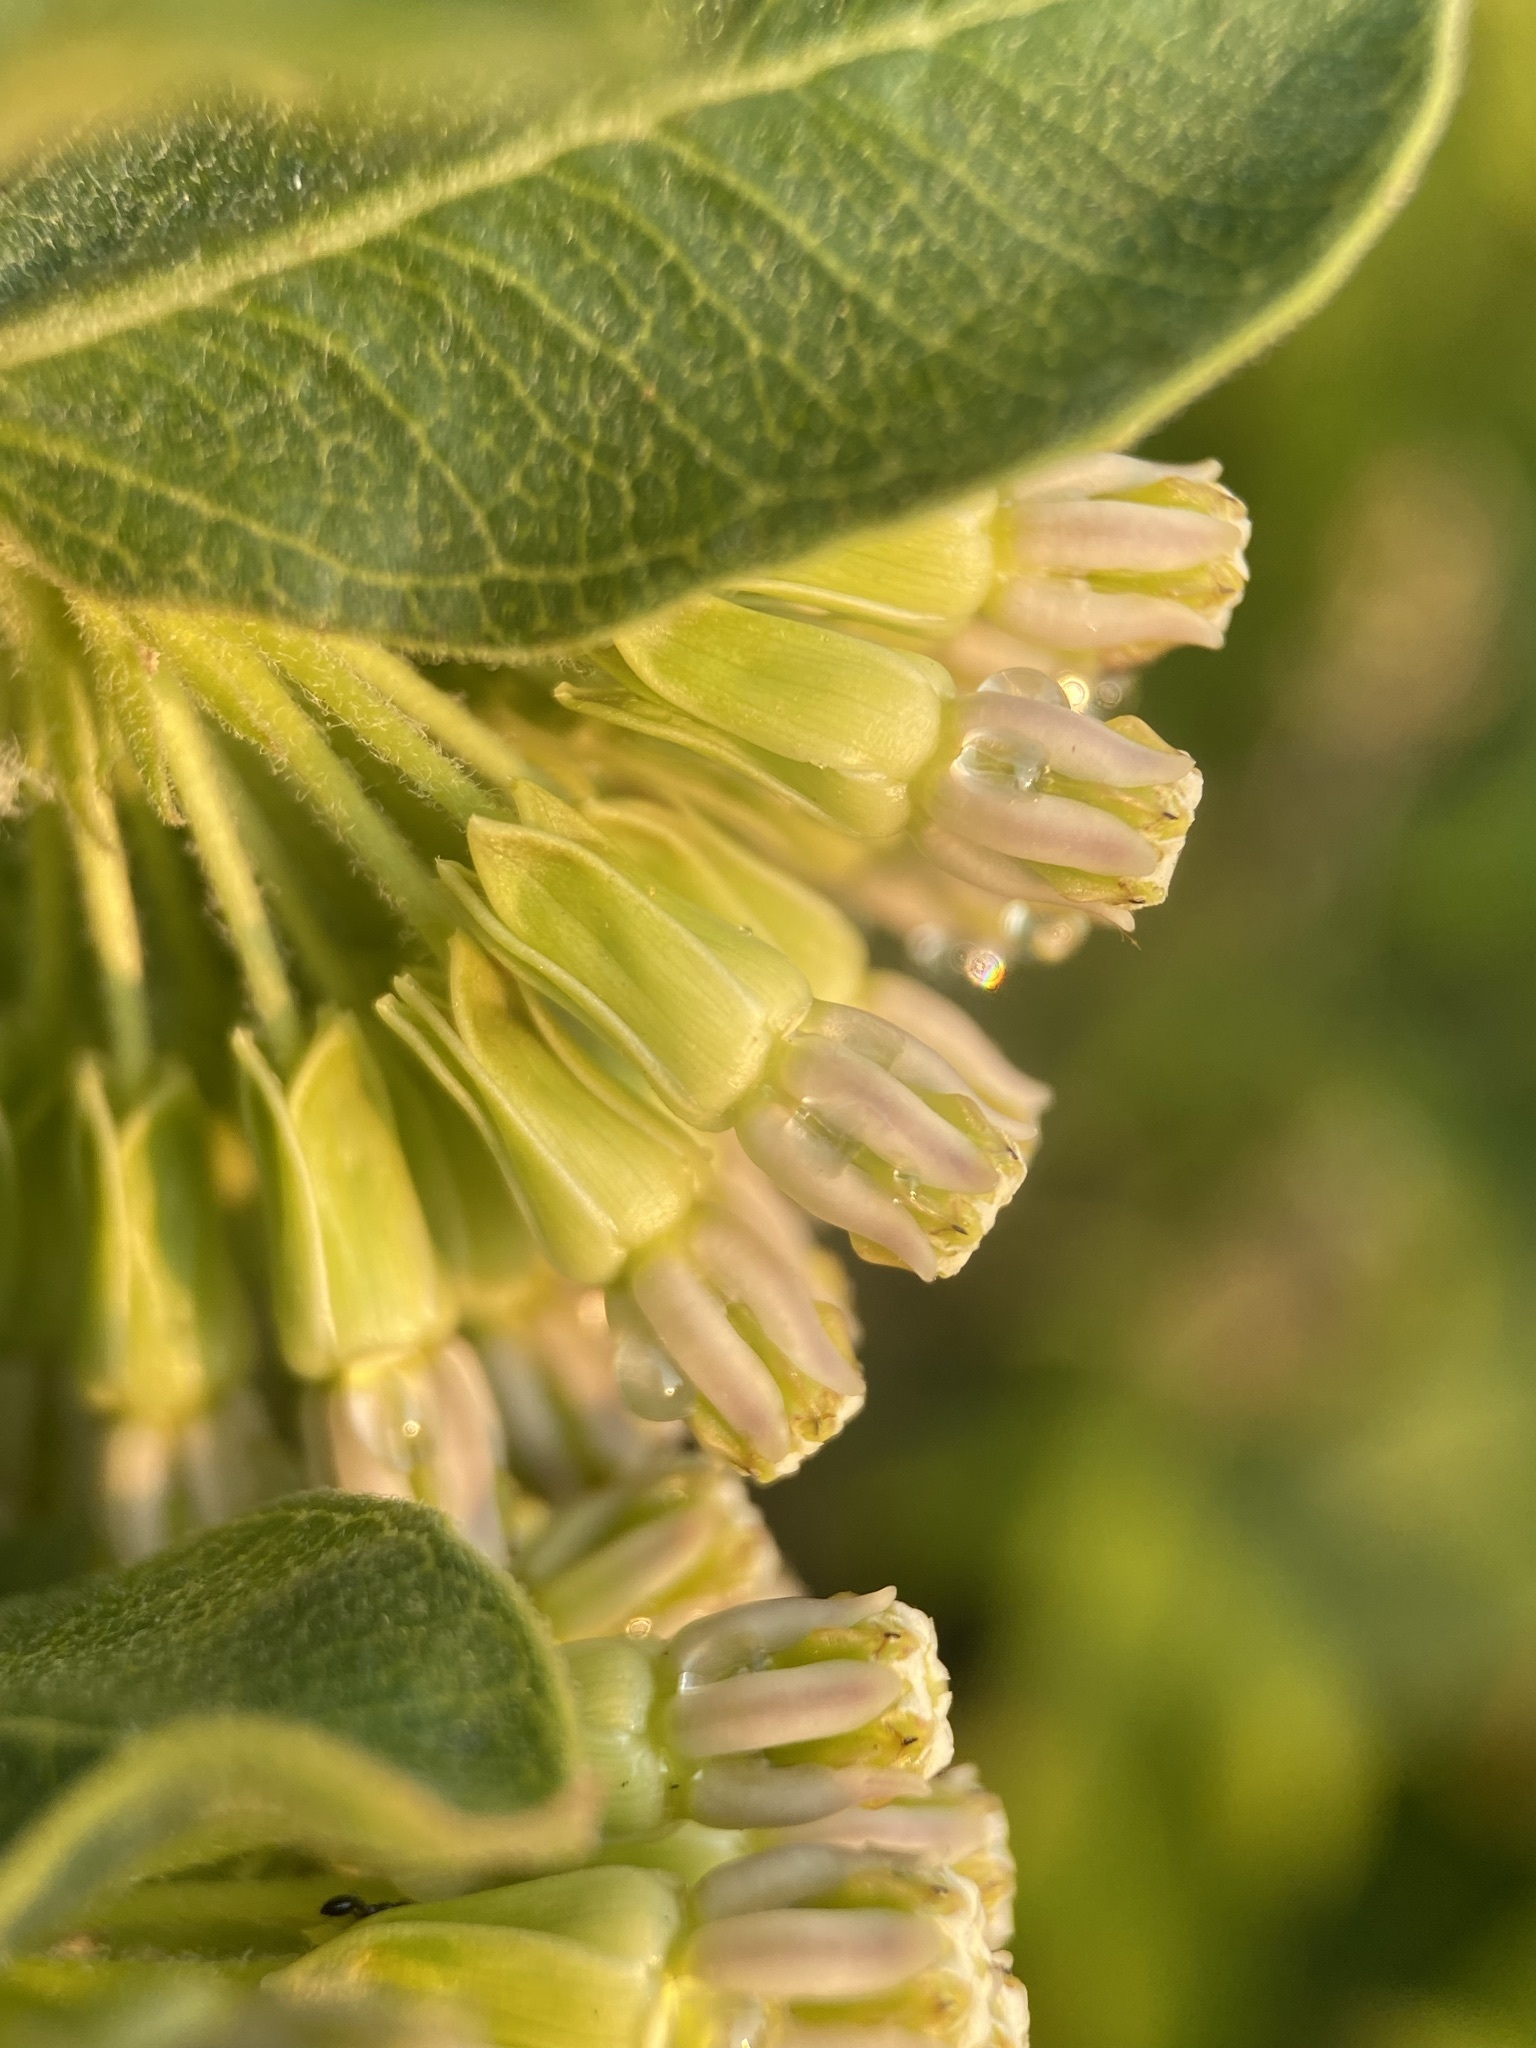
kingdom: Plantae
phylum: Tracheophyta
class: Magnoliopsida
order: Gentianales
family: Apocynaceae
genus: Asclepias
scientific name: Asclepias viridiflora
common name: Green comet milkweed
